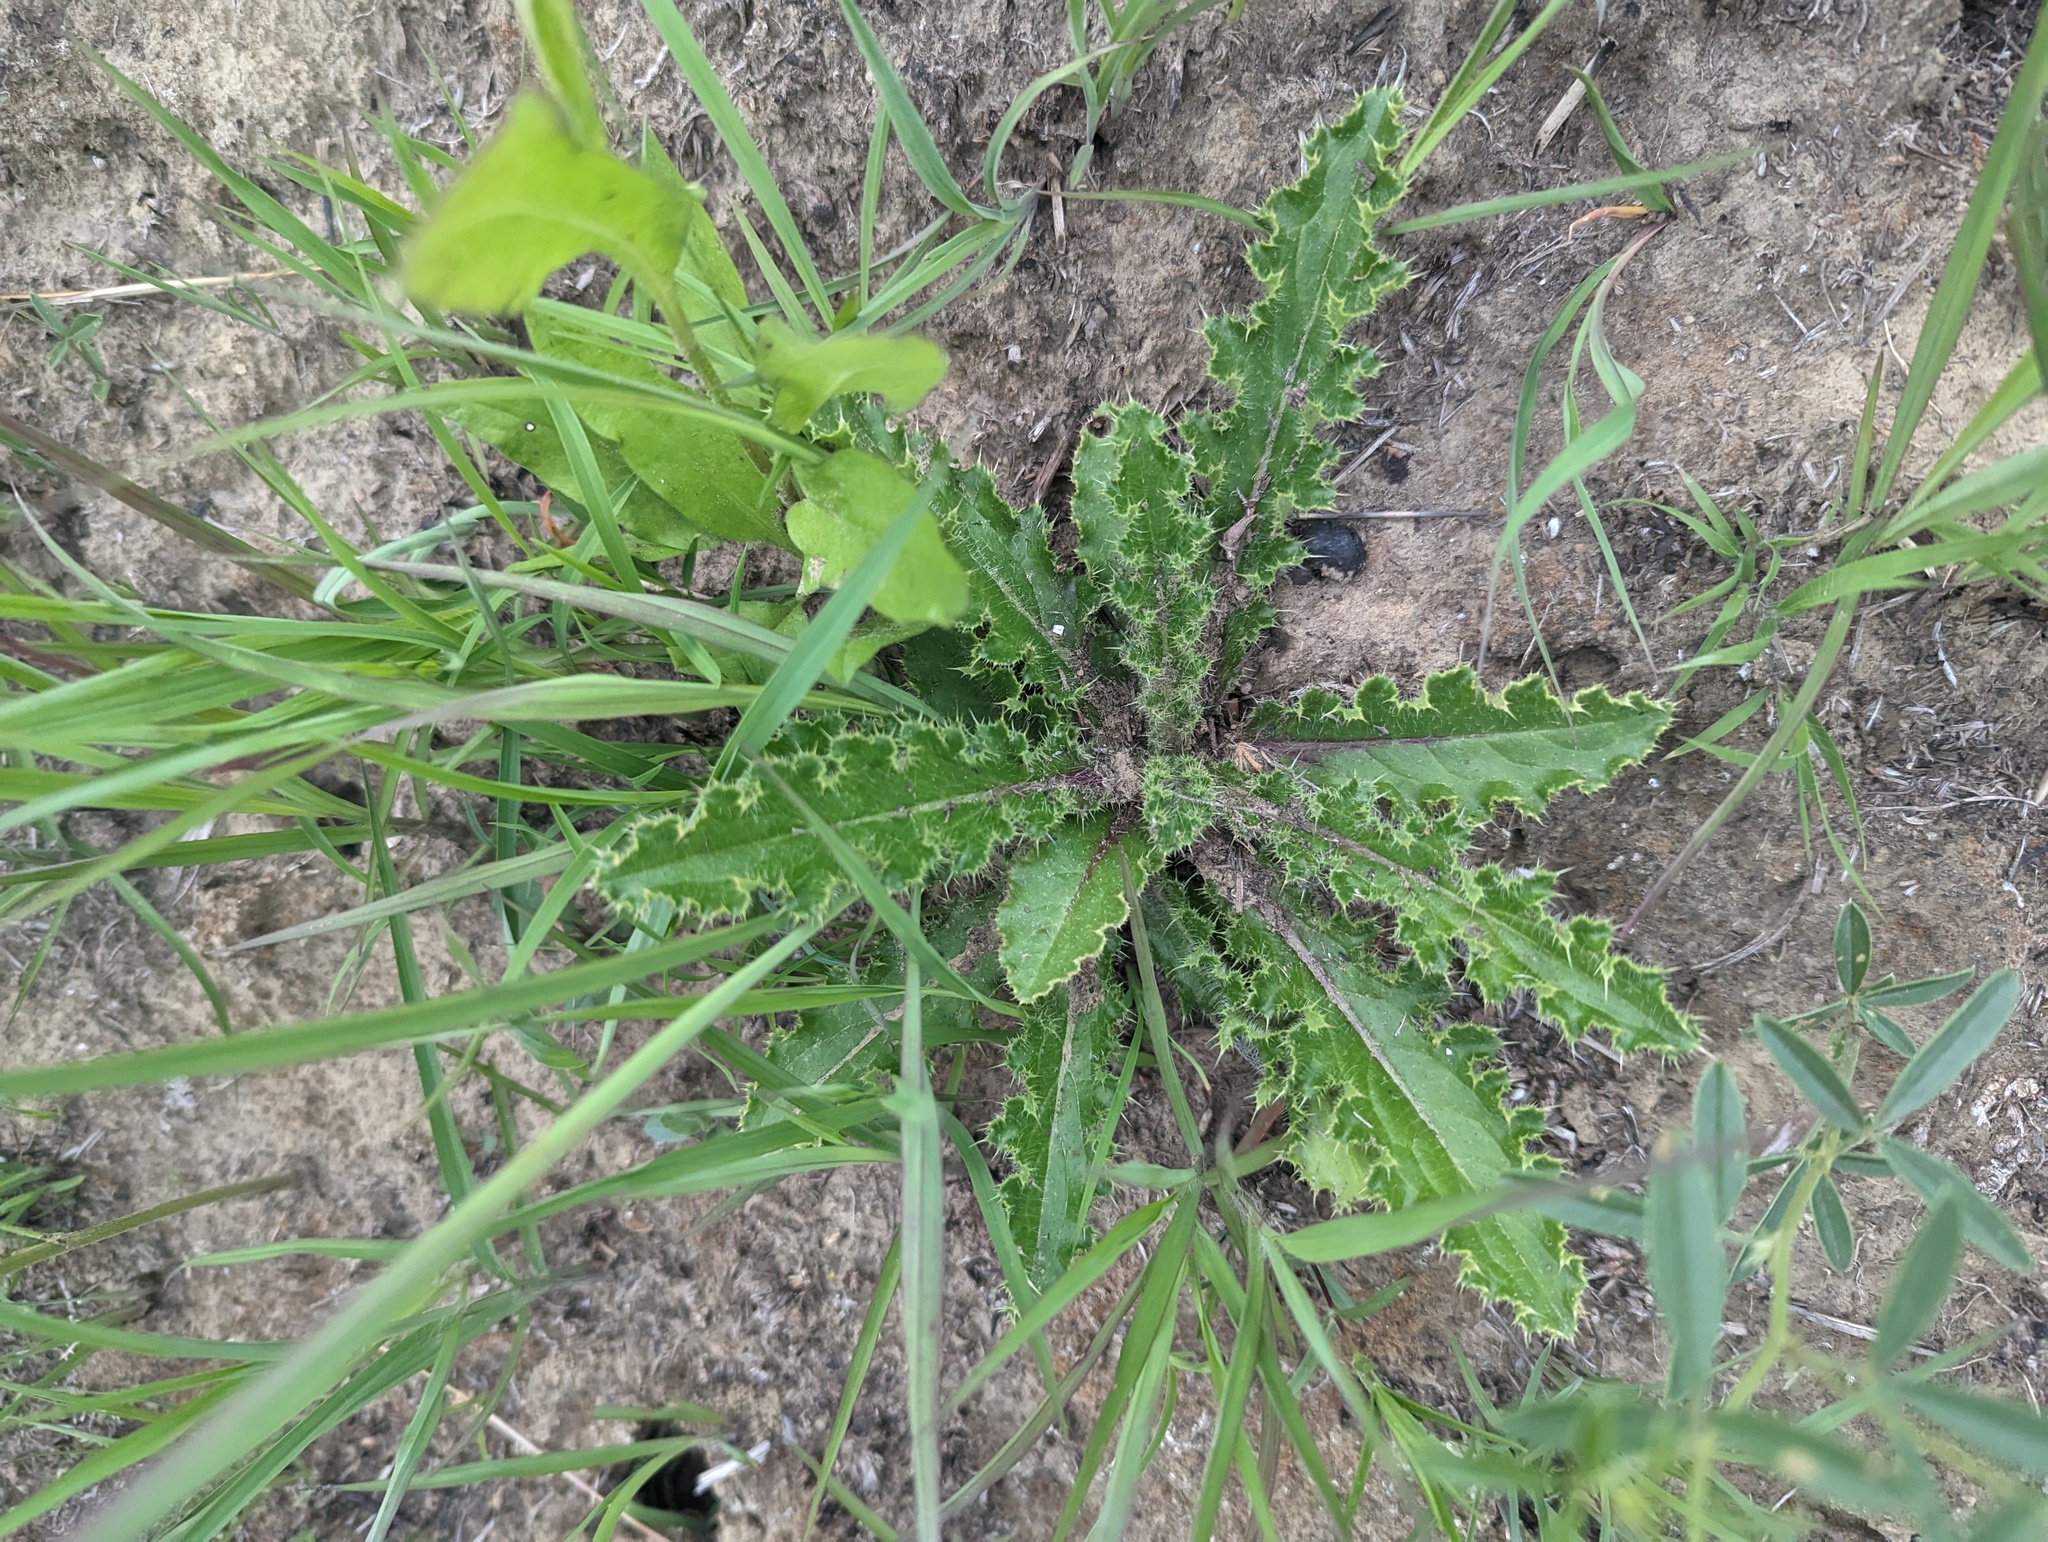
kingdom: Plantae
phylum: Tracheophyta
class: Magnoliopsida
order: Asterales
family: Asteraceae
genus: Cirsium
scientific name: Cirsium pumilum
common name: Pasture thistle
